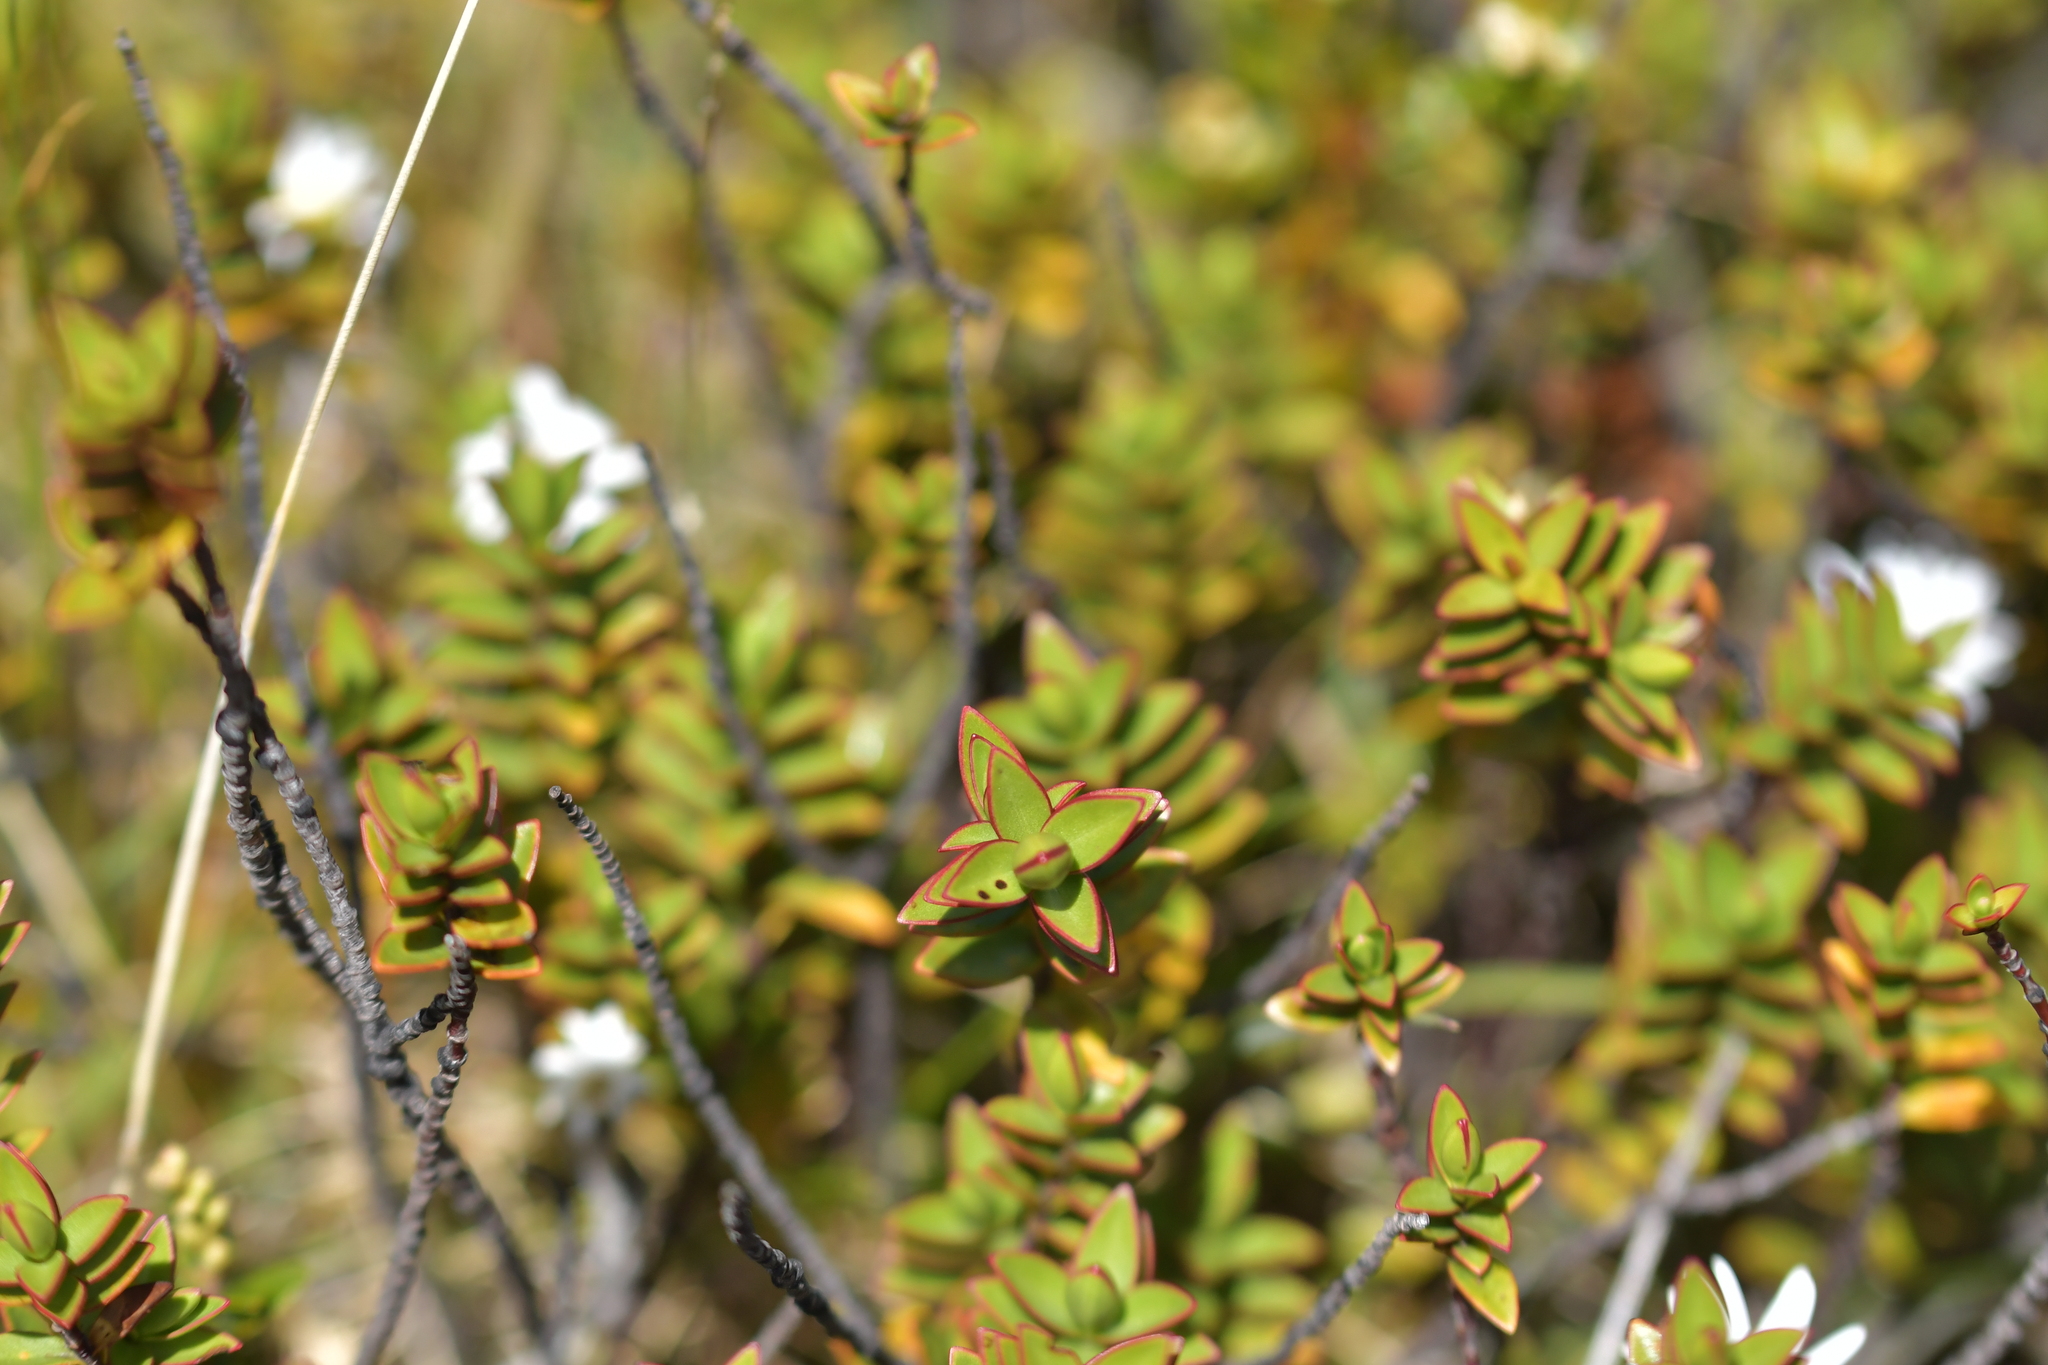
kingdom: Plantae
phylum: Tracheophyta
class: Magnoliopsida
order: Lamiales
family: Plantaginaceae
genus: Veronica
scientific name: Veronica decumbens
